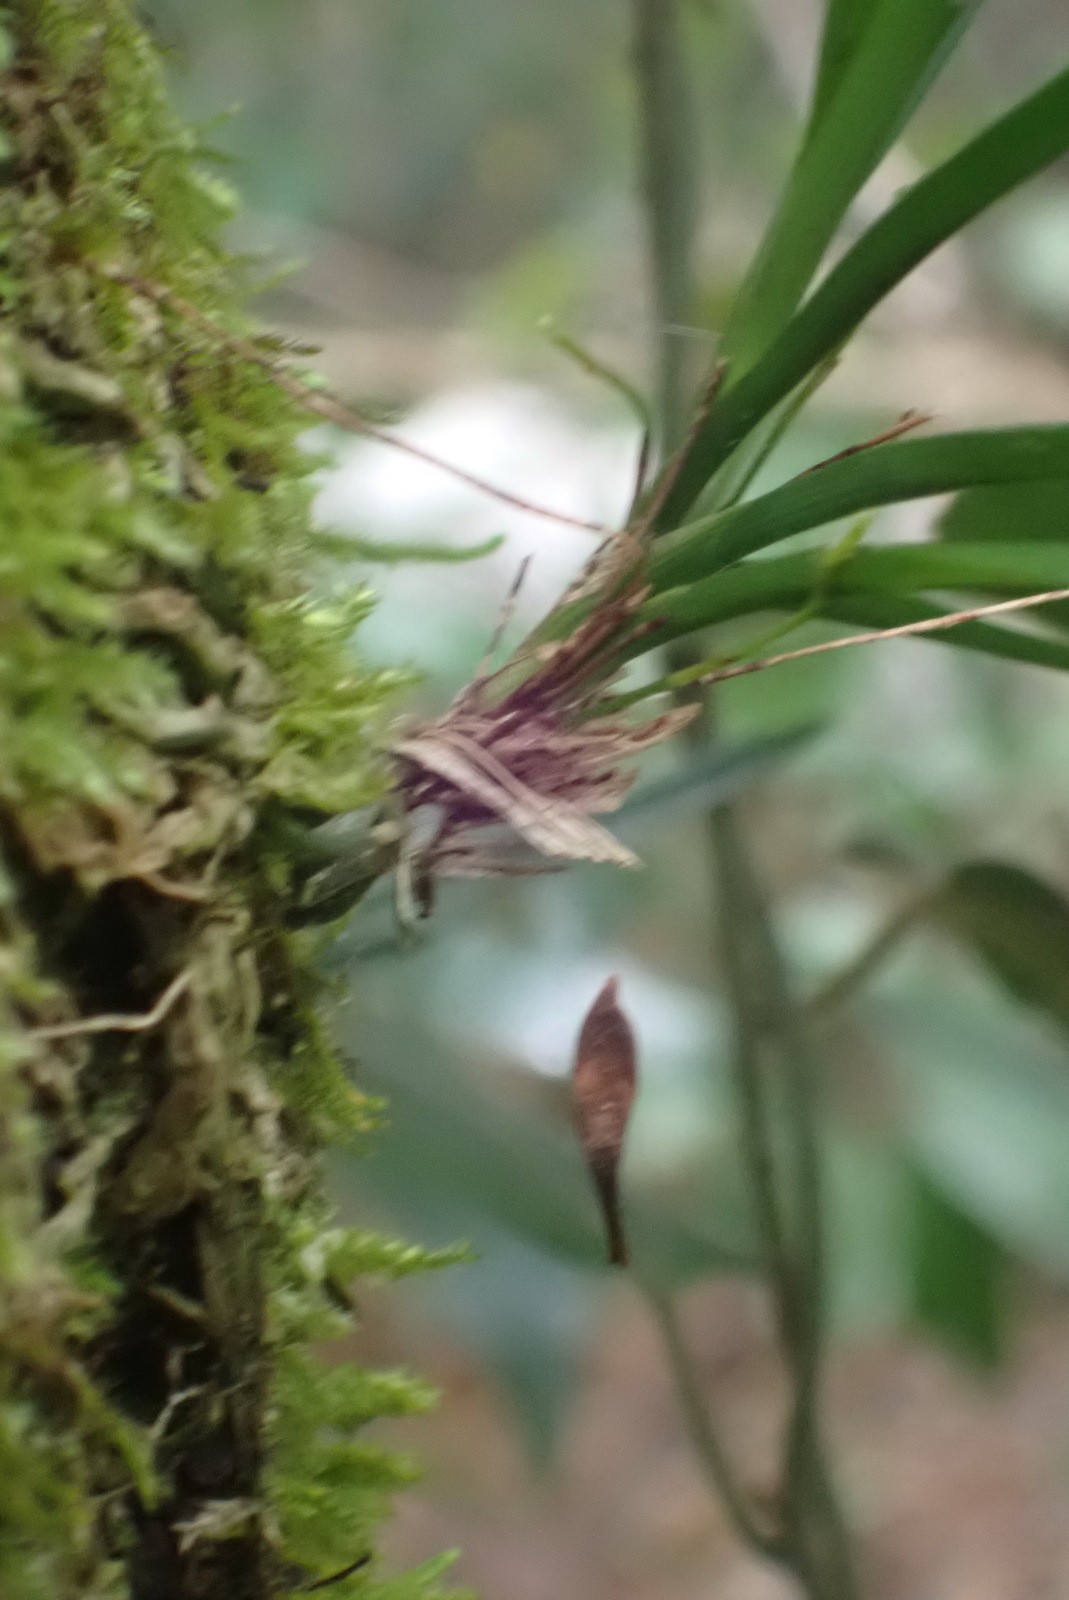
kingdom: Plantae
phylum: Tracheophyta
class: Liliopsida
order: Asparagales
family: Orchidaceae
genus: Angraecum
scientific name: Angraecum pusillum
